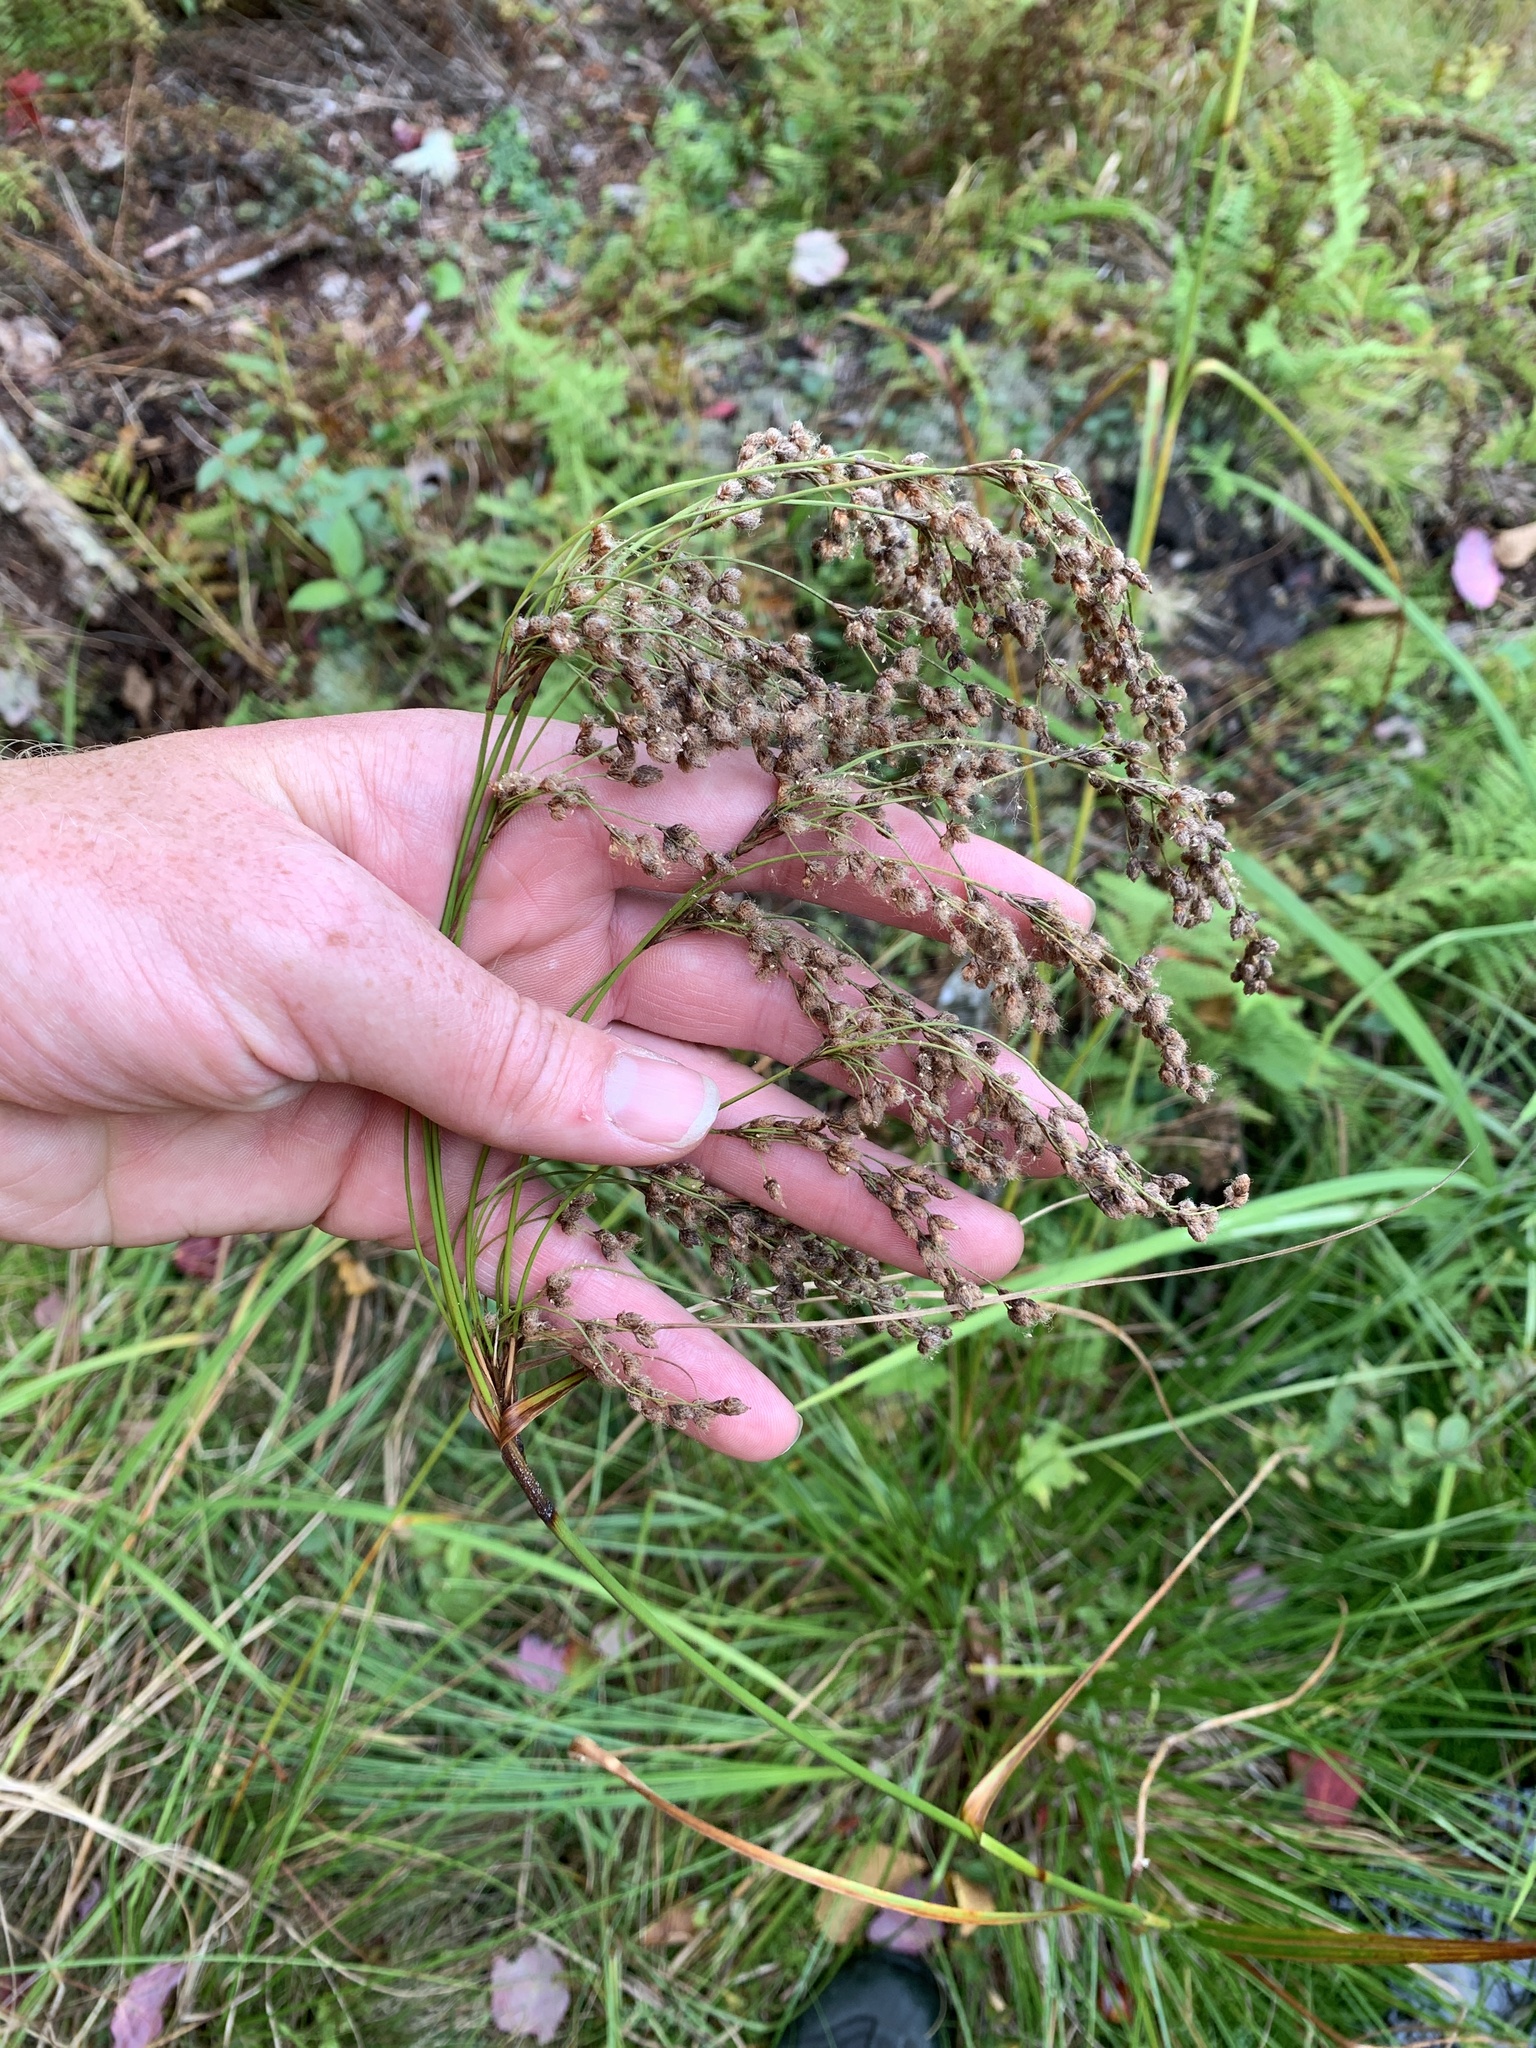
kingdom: Plantae
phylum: Tracheophyta
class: Liliopsida
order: Poales
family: Cyperaceae
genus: Scirpus
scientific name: Scirpus cyperinus
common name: Black-sheathed bulrush
